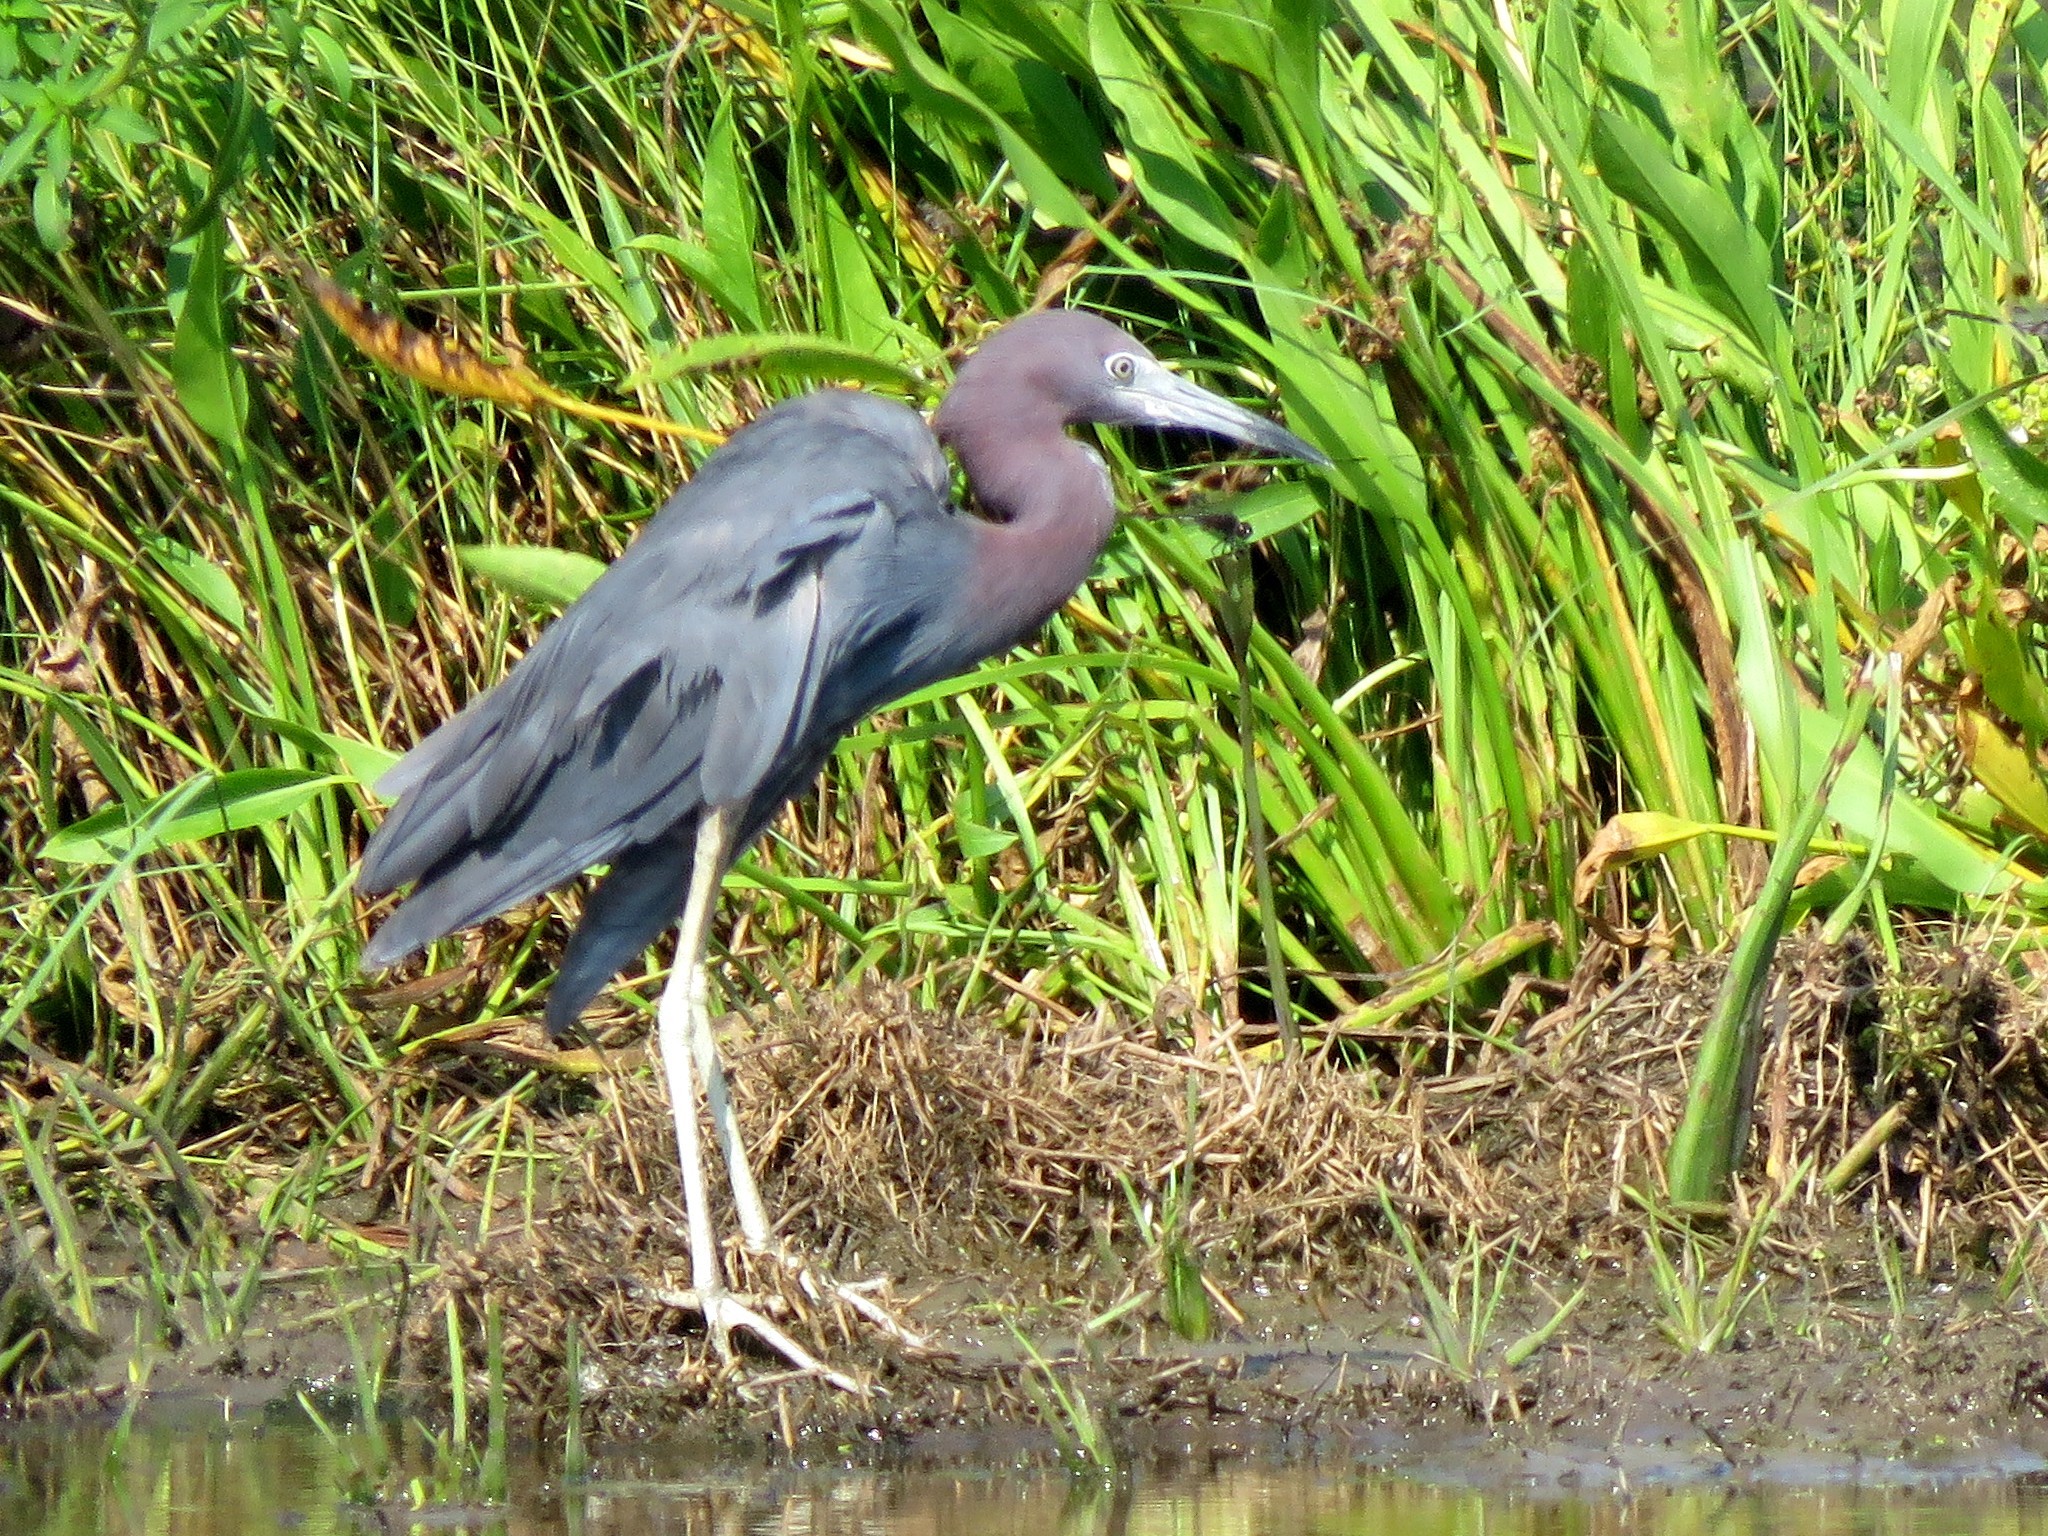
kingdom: Animalia
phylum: Chordata
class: Aves
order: Pelecaniformes
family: Ardeidae
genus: Egretta
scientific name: Egretta caerulea
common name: Little blue heron
